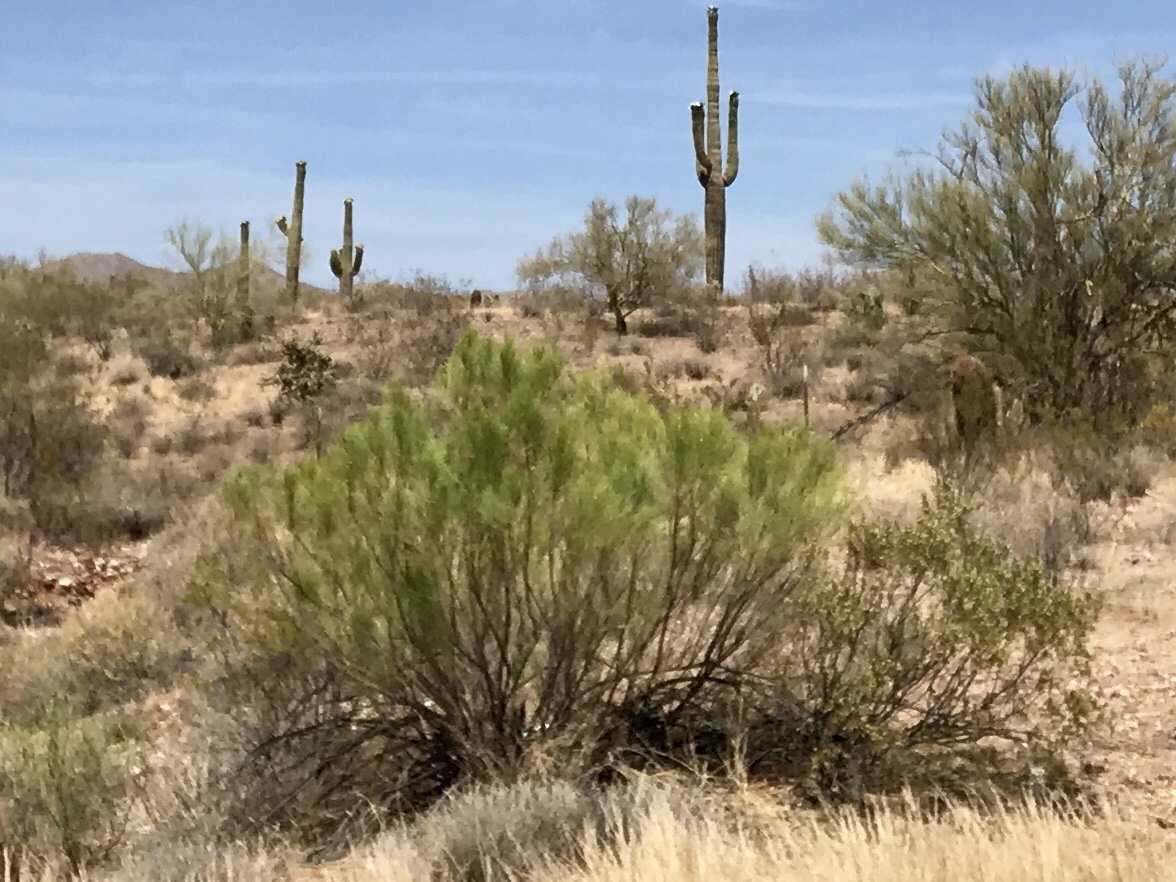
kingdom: Plantae
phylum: Tracheophyta
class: Magnoliopsida
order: Asterales
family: Asteraceae
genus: Baccharis
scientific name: Baccharis sarothroides
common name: Desert-broom
